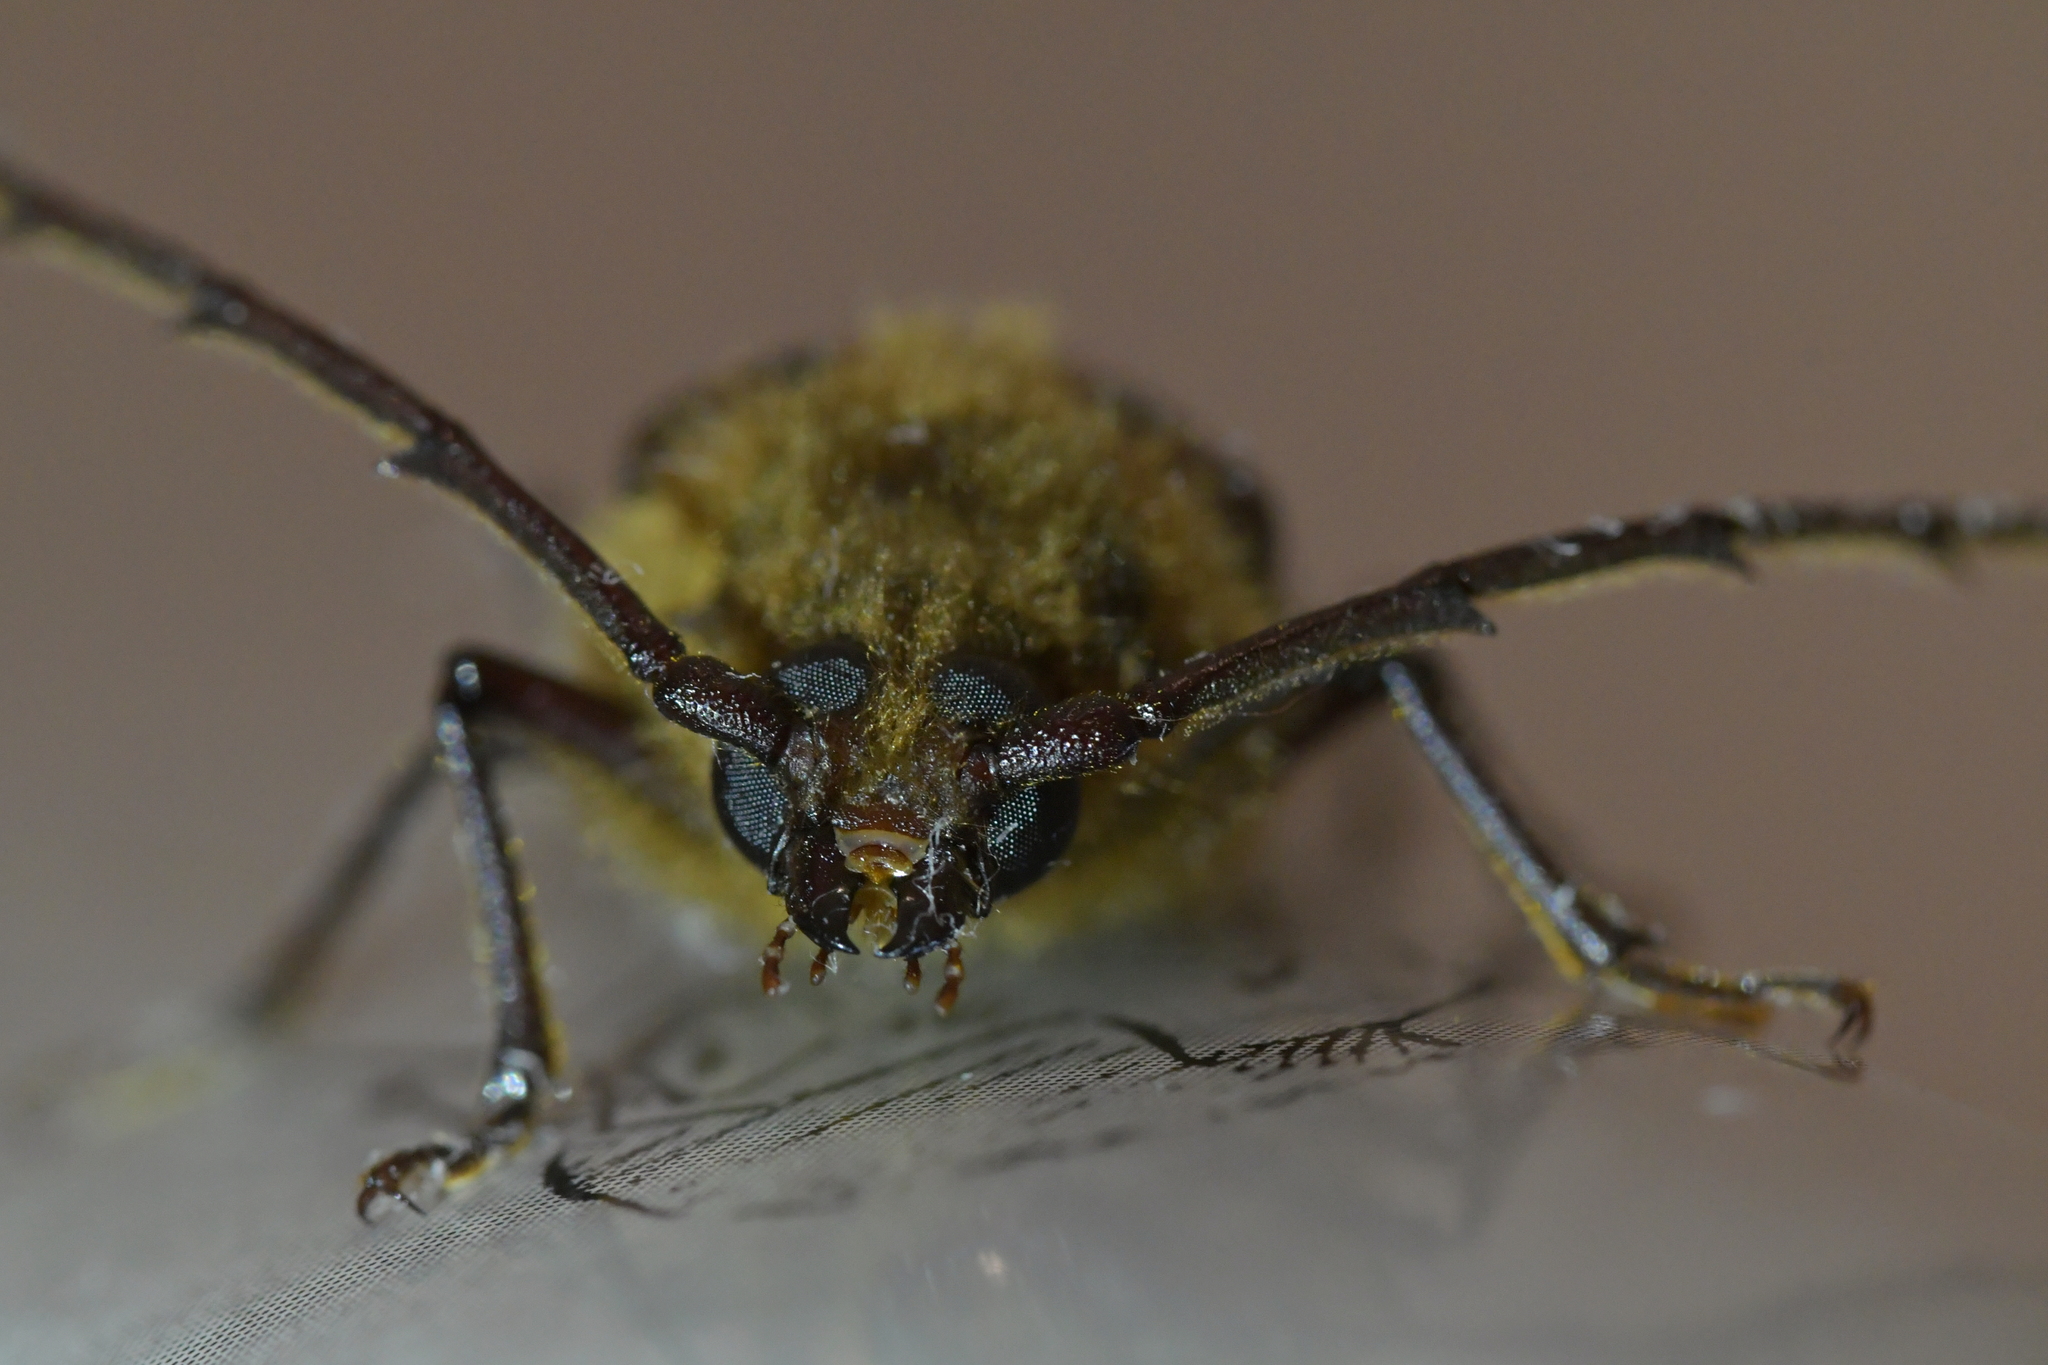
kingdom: Animalia
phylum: Arthropoda
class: Insecta
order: Coleoptera
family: Cerambycidae
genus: Prionoplus
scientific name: Prionoplus reticularis
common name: Huhu beetle
